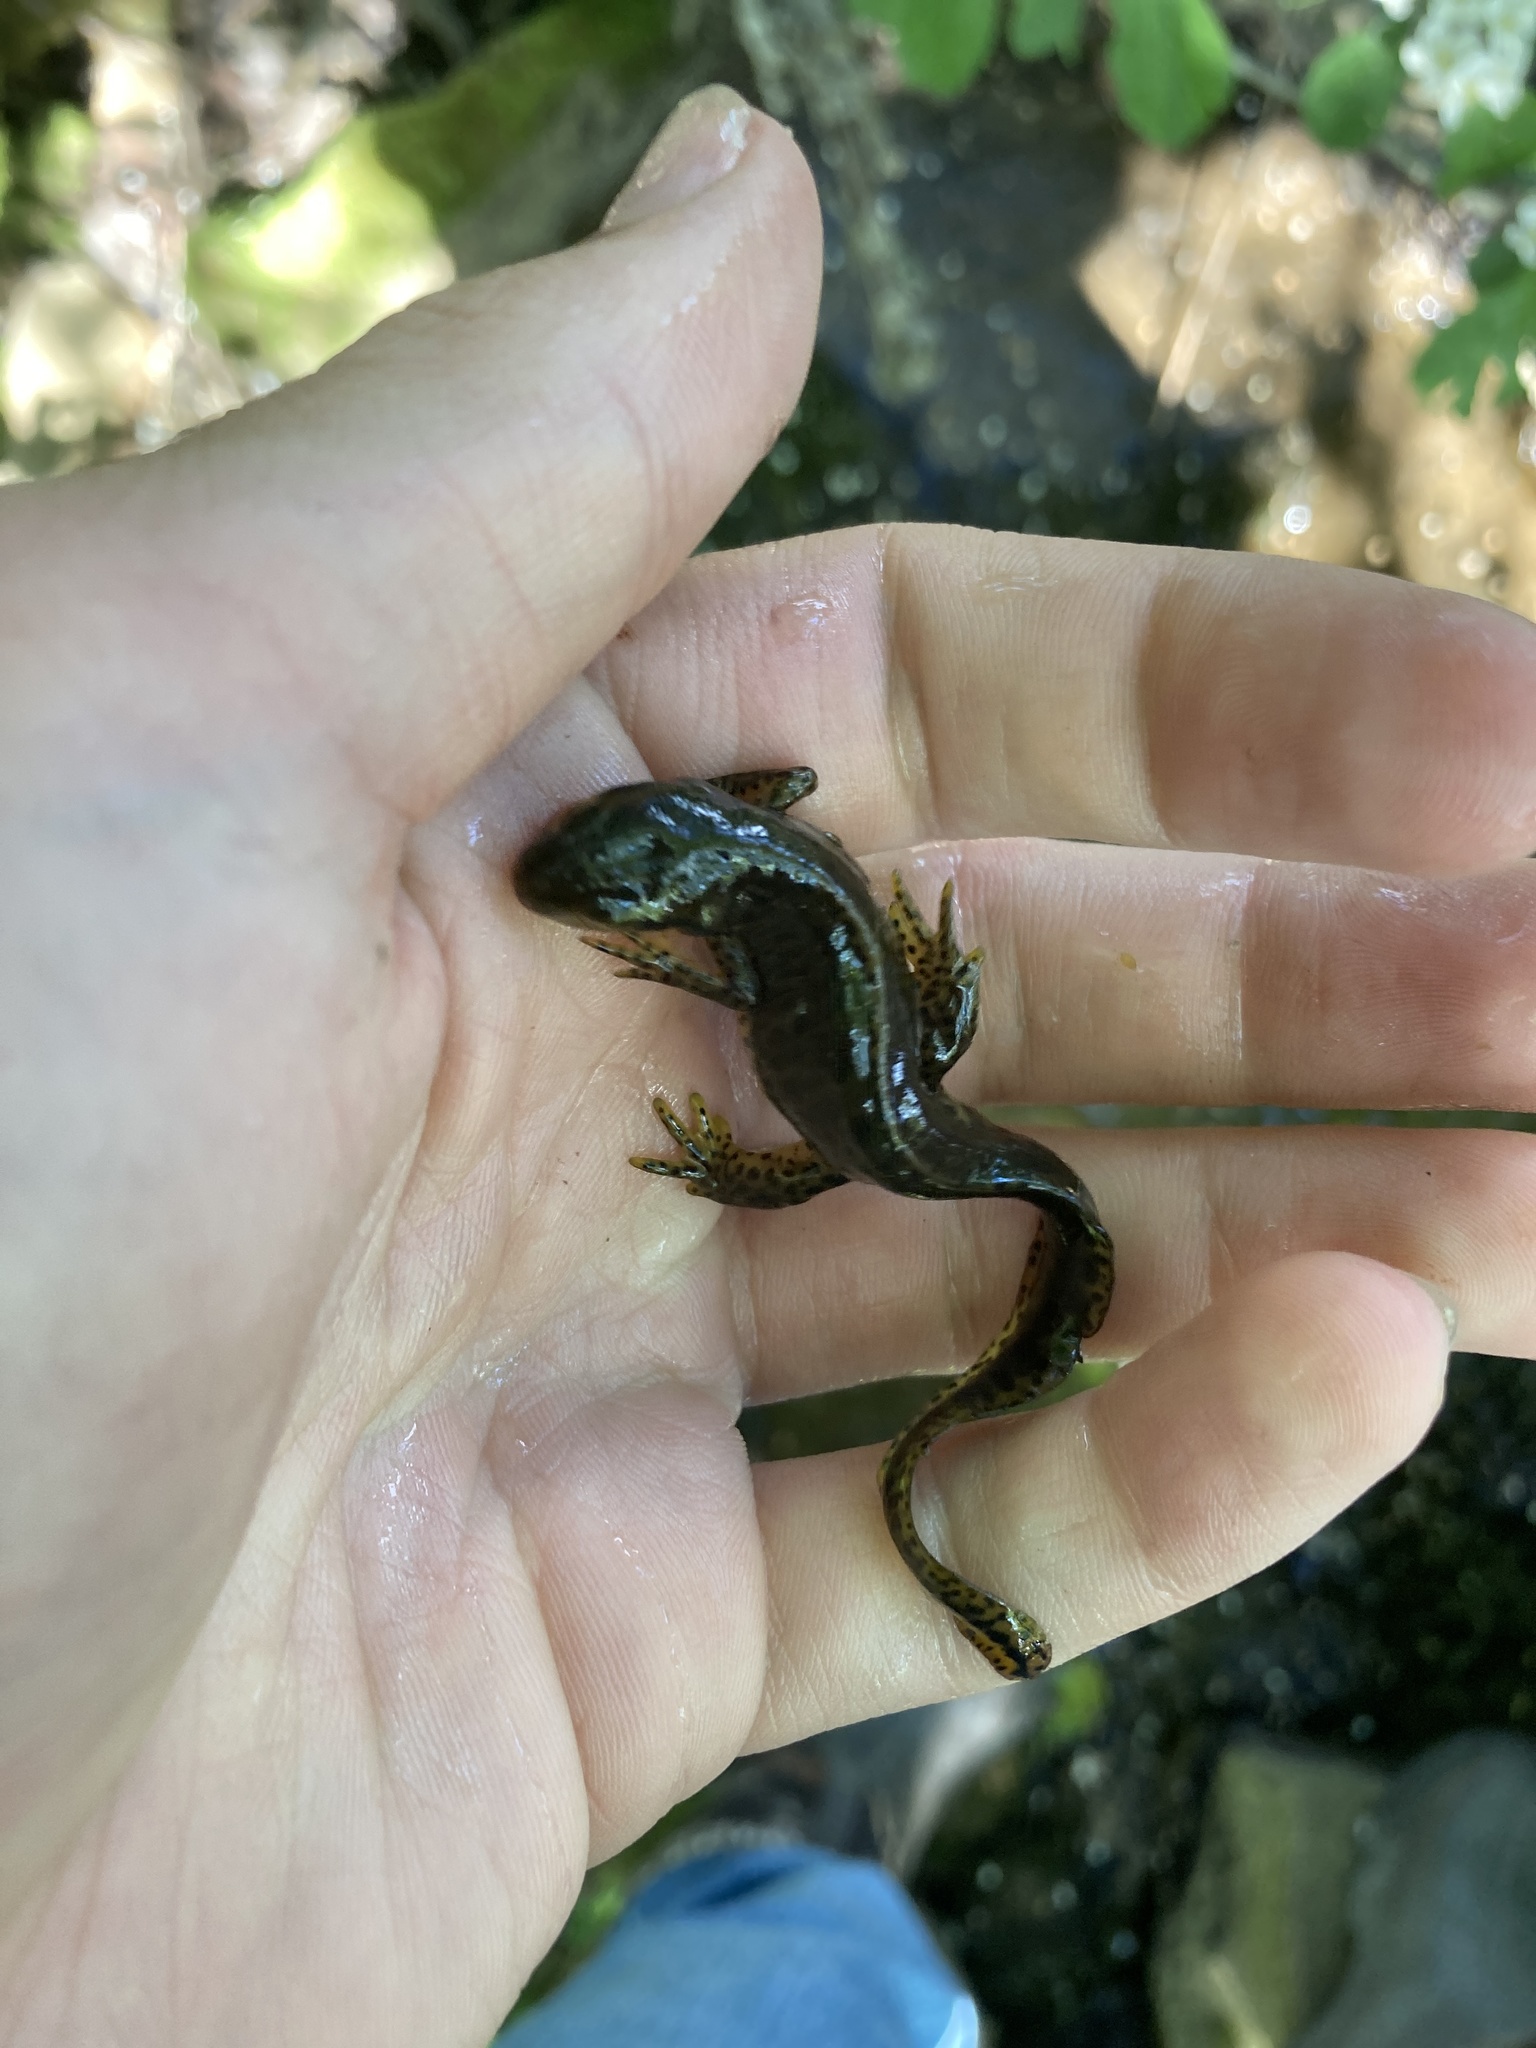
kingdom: Animalia
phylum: Chordata
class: Amphibia
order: Caudata
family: Salamandridae
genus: Notophthalmus
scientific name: Notophthalmus viridescens
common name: Eastern newt
